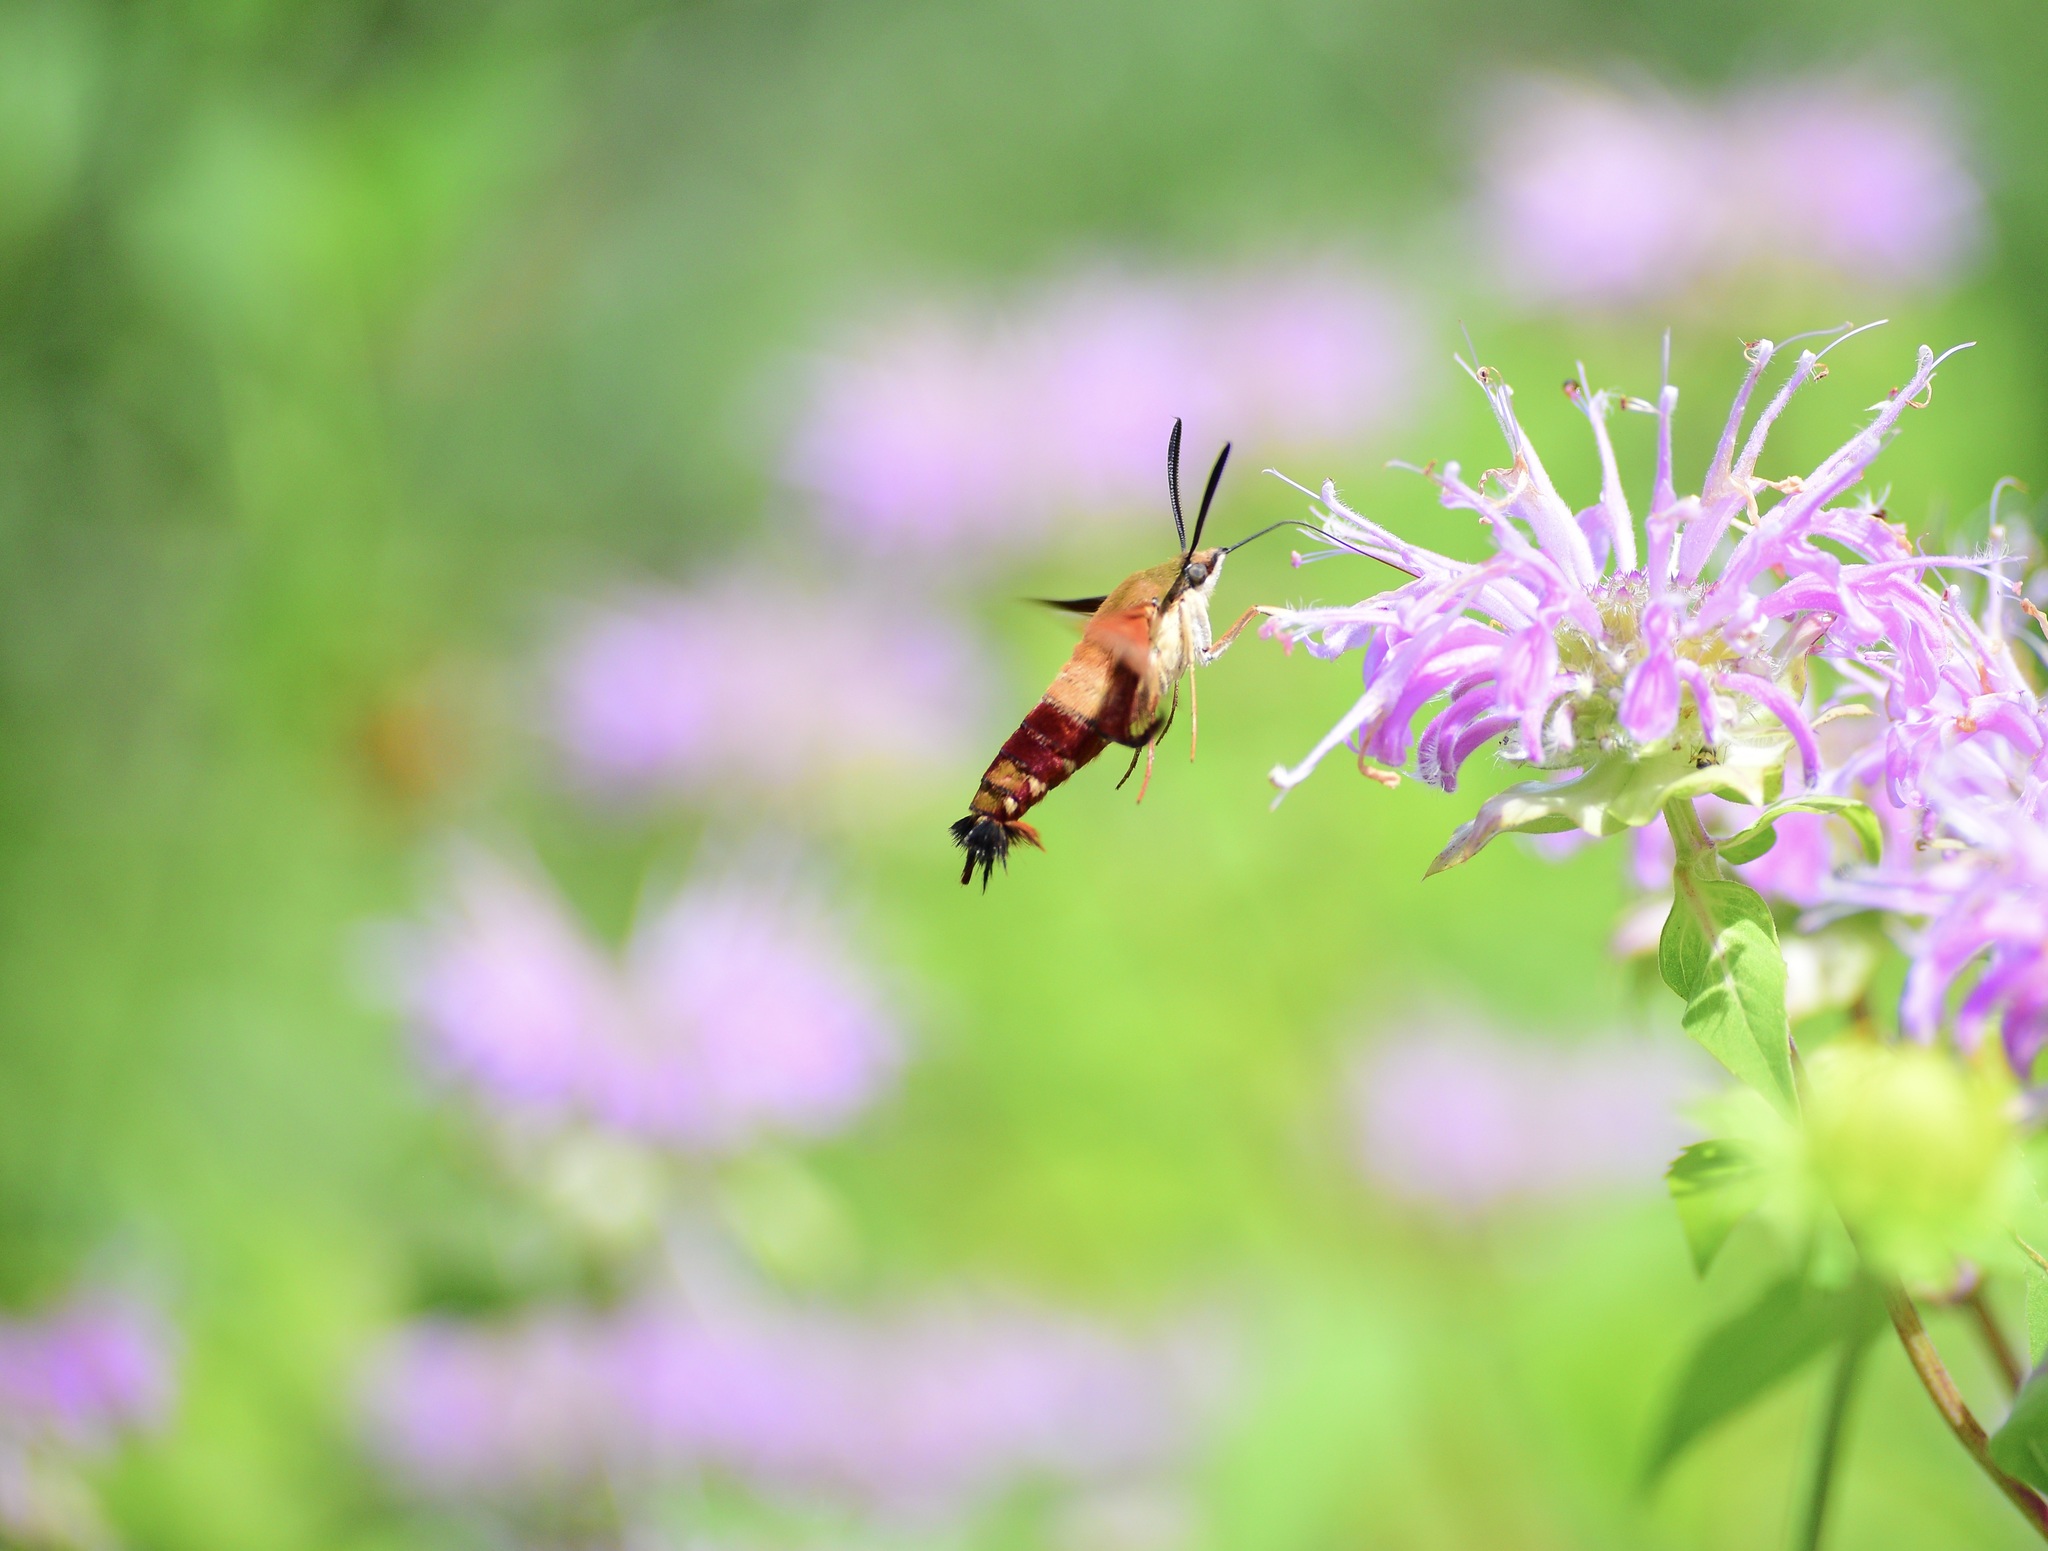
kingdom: Animalia
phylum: Arthropoda
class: Insecta
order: Lepidoptera
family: Sphingidae
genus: Hemaris
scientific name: Hemaris thysbe
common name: Common clear-wing
